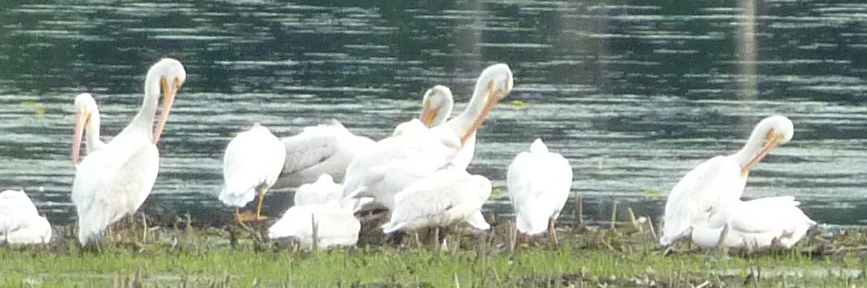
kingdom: Animalia
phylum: Chordata
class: Aves
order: Pelecaniformes
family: Pelecanidae
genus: Pelecanus
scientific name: Pelecanus erythrorhynchos
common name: American white pelican
